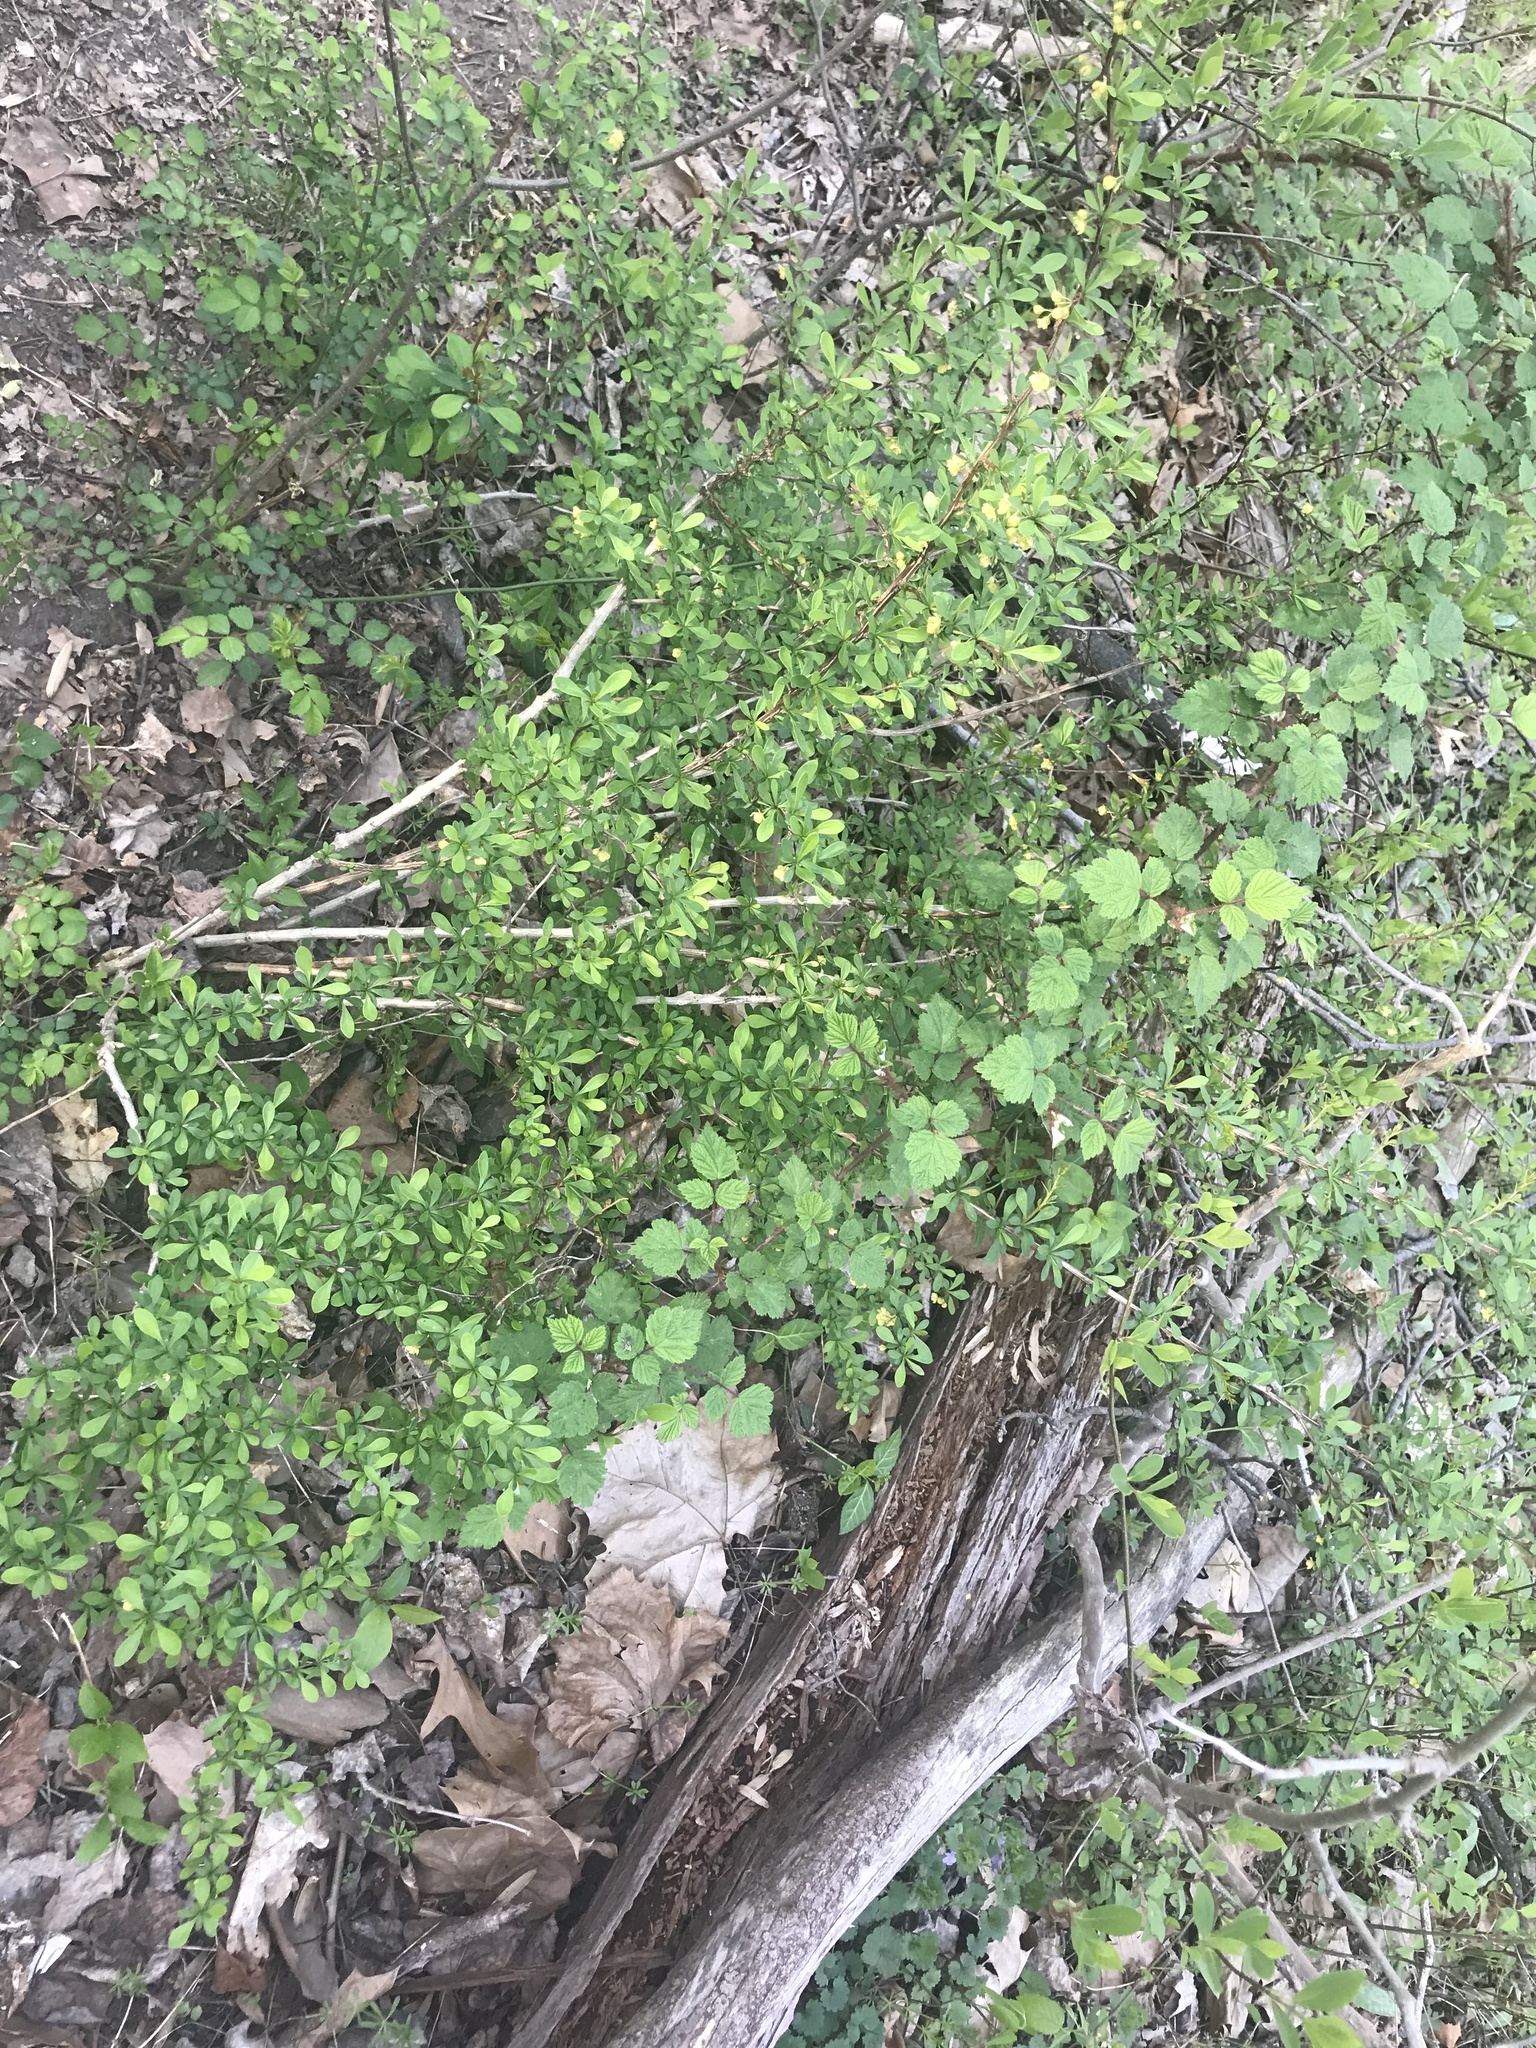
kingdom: Plantae
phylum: Tracheophyta
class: Magnoliopsida
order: Rosales
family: Rosaceae
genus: Rubus
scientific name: Rubus phoenicolasius
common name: Japanese wineberry
